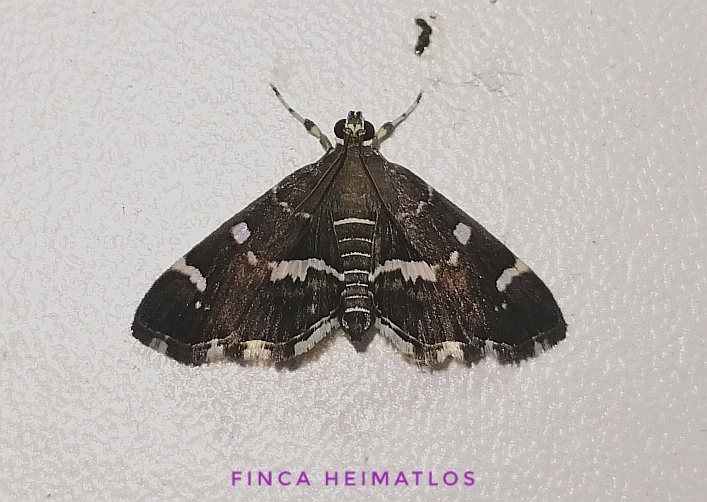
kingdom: Animalia
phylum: Arthropoda
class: Insecta
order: Lepidoptera
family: Crambidae
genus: Hymenia
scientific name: Hymenia perspectalis
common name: Spotted beet webworm
